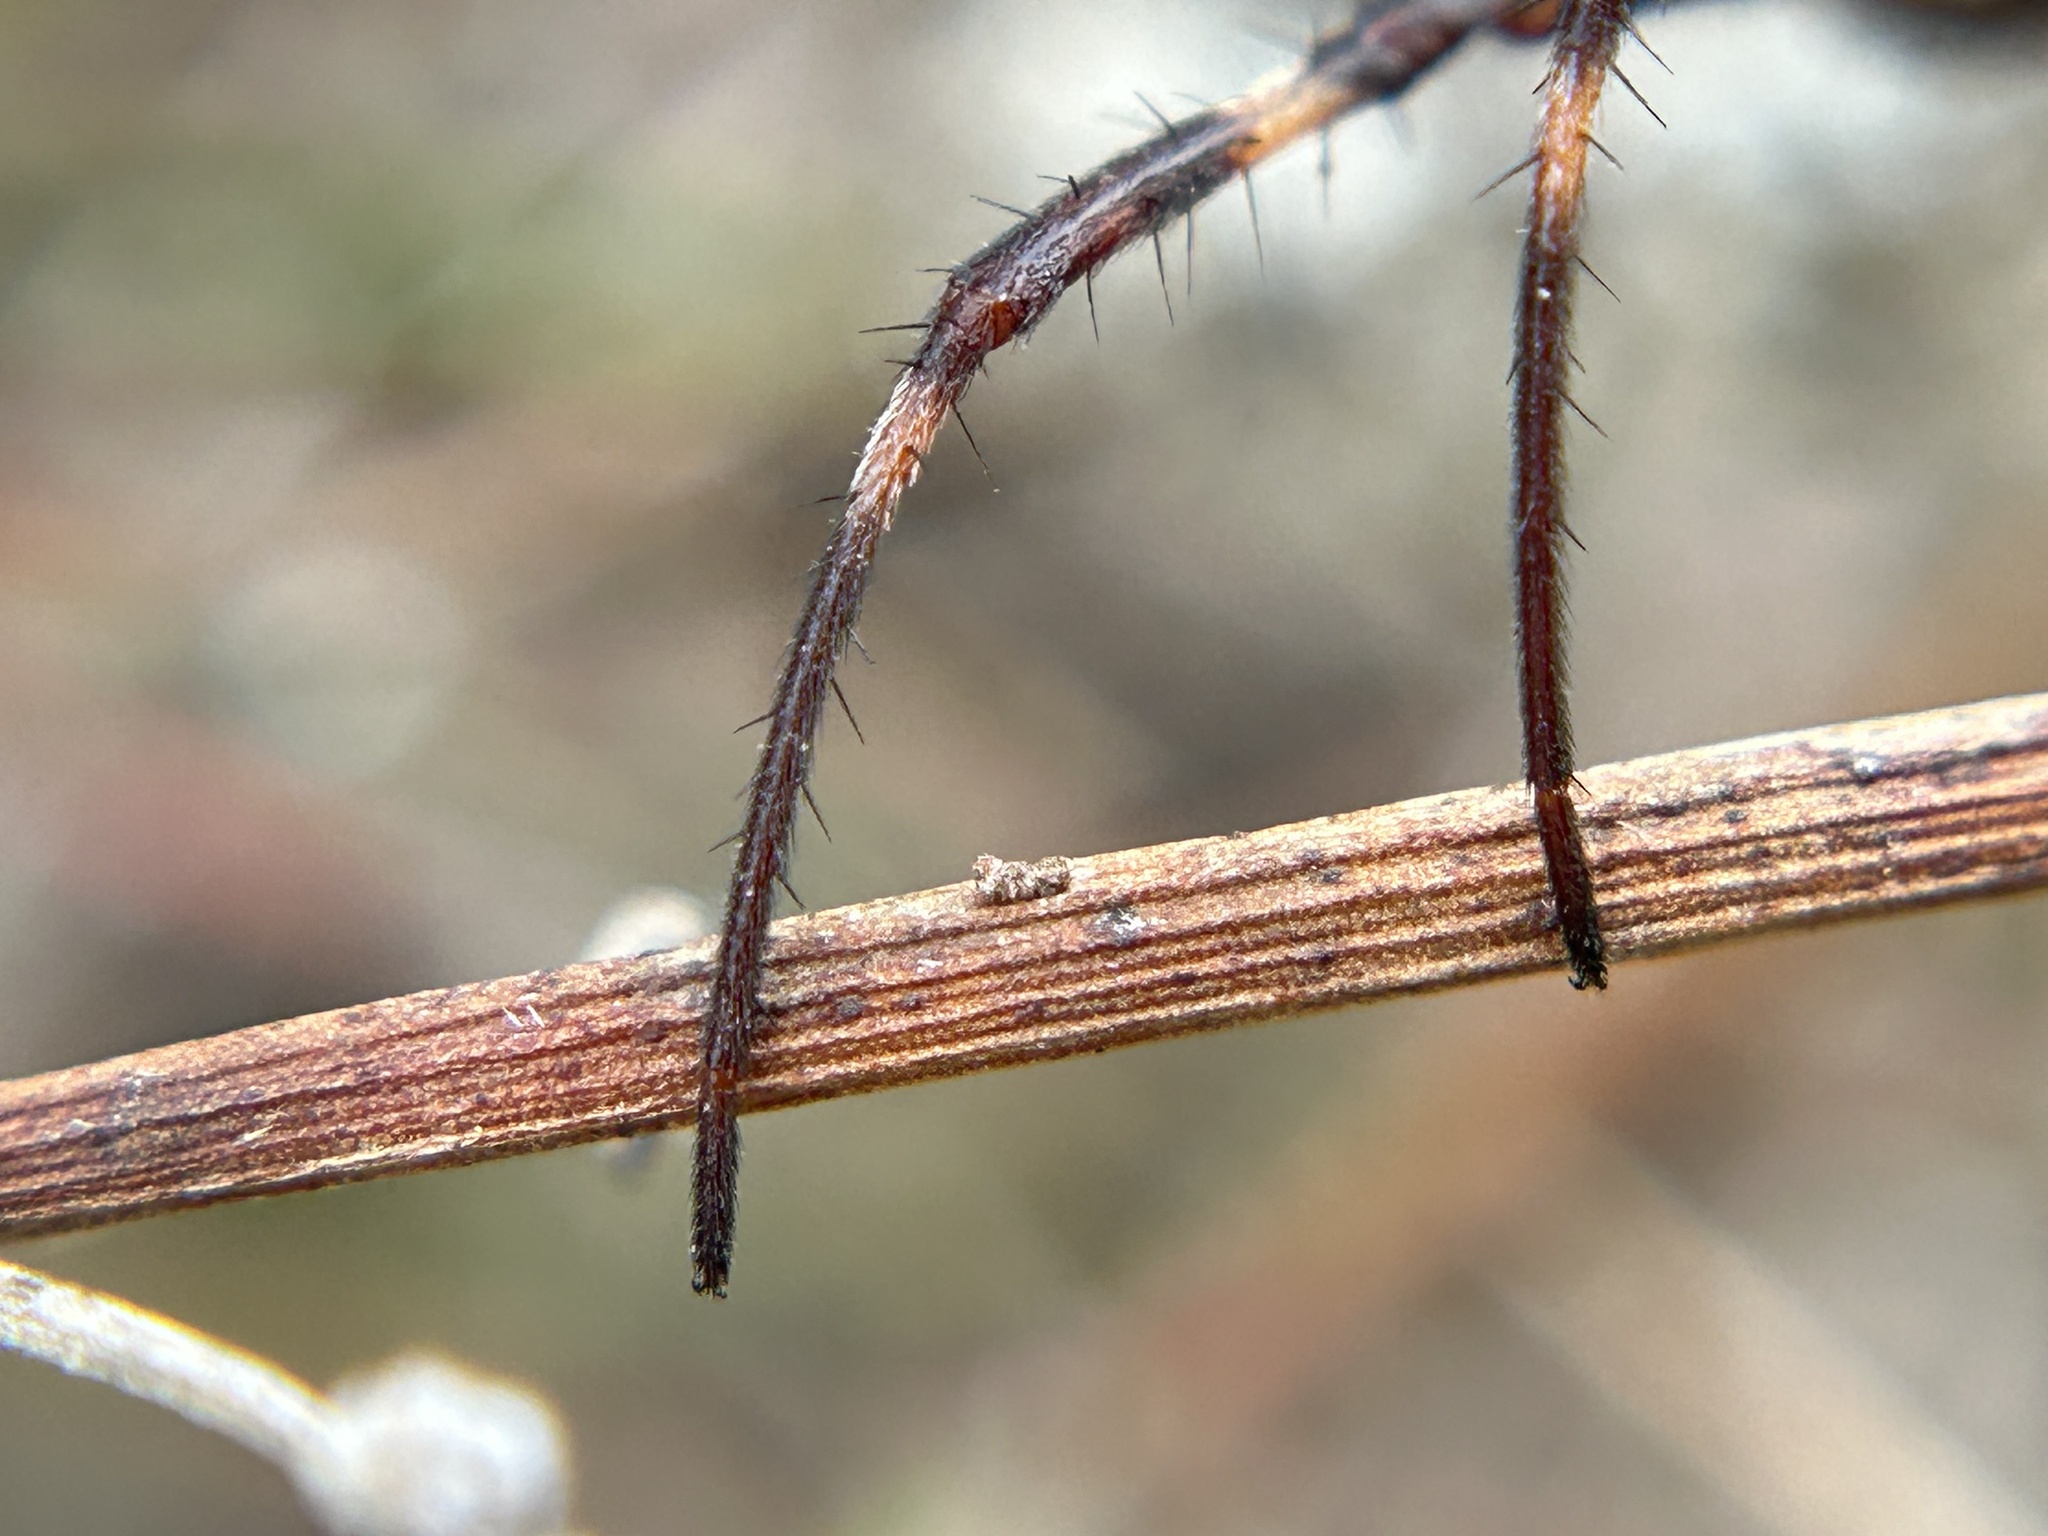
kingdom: Animalia
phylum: Arthropoda
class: Arachnida
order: Araneae
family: Araneidae
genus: Argiope
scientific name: Argiope argentata
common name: Orb weavers
